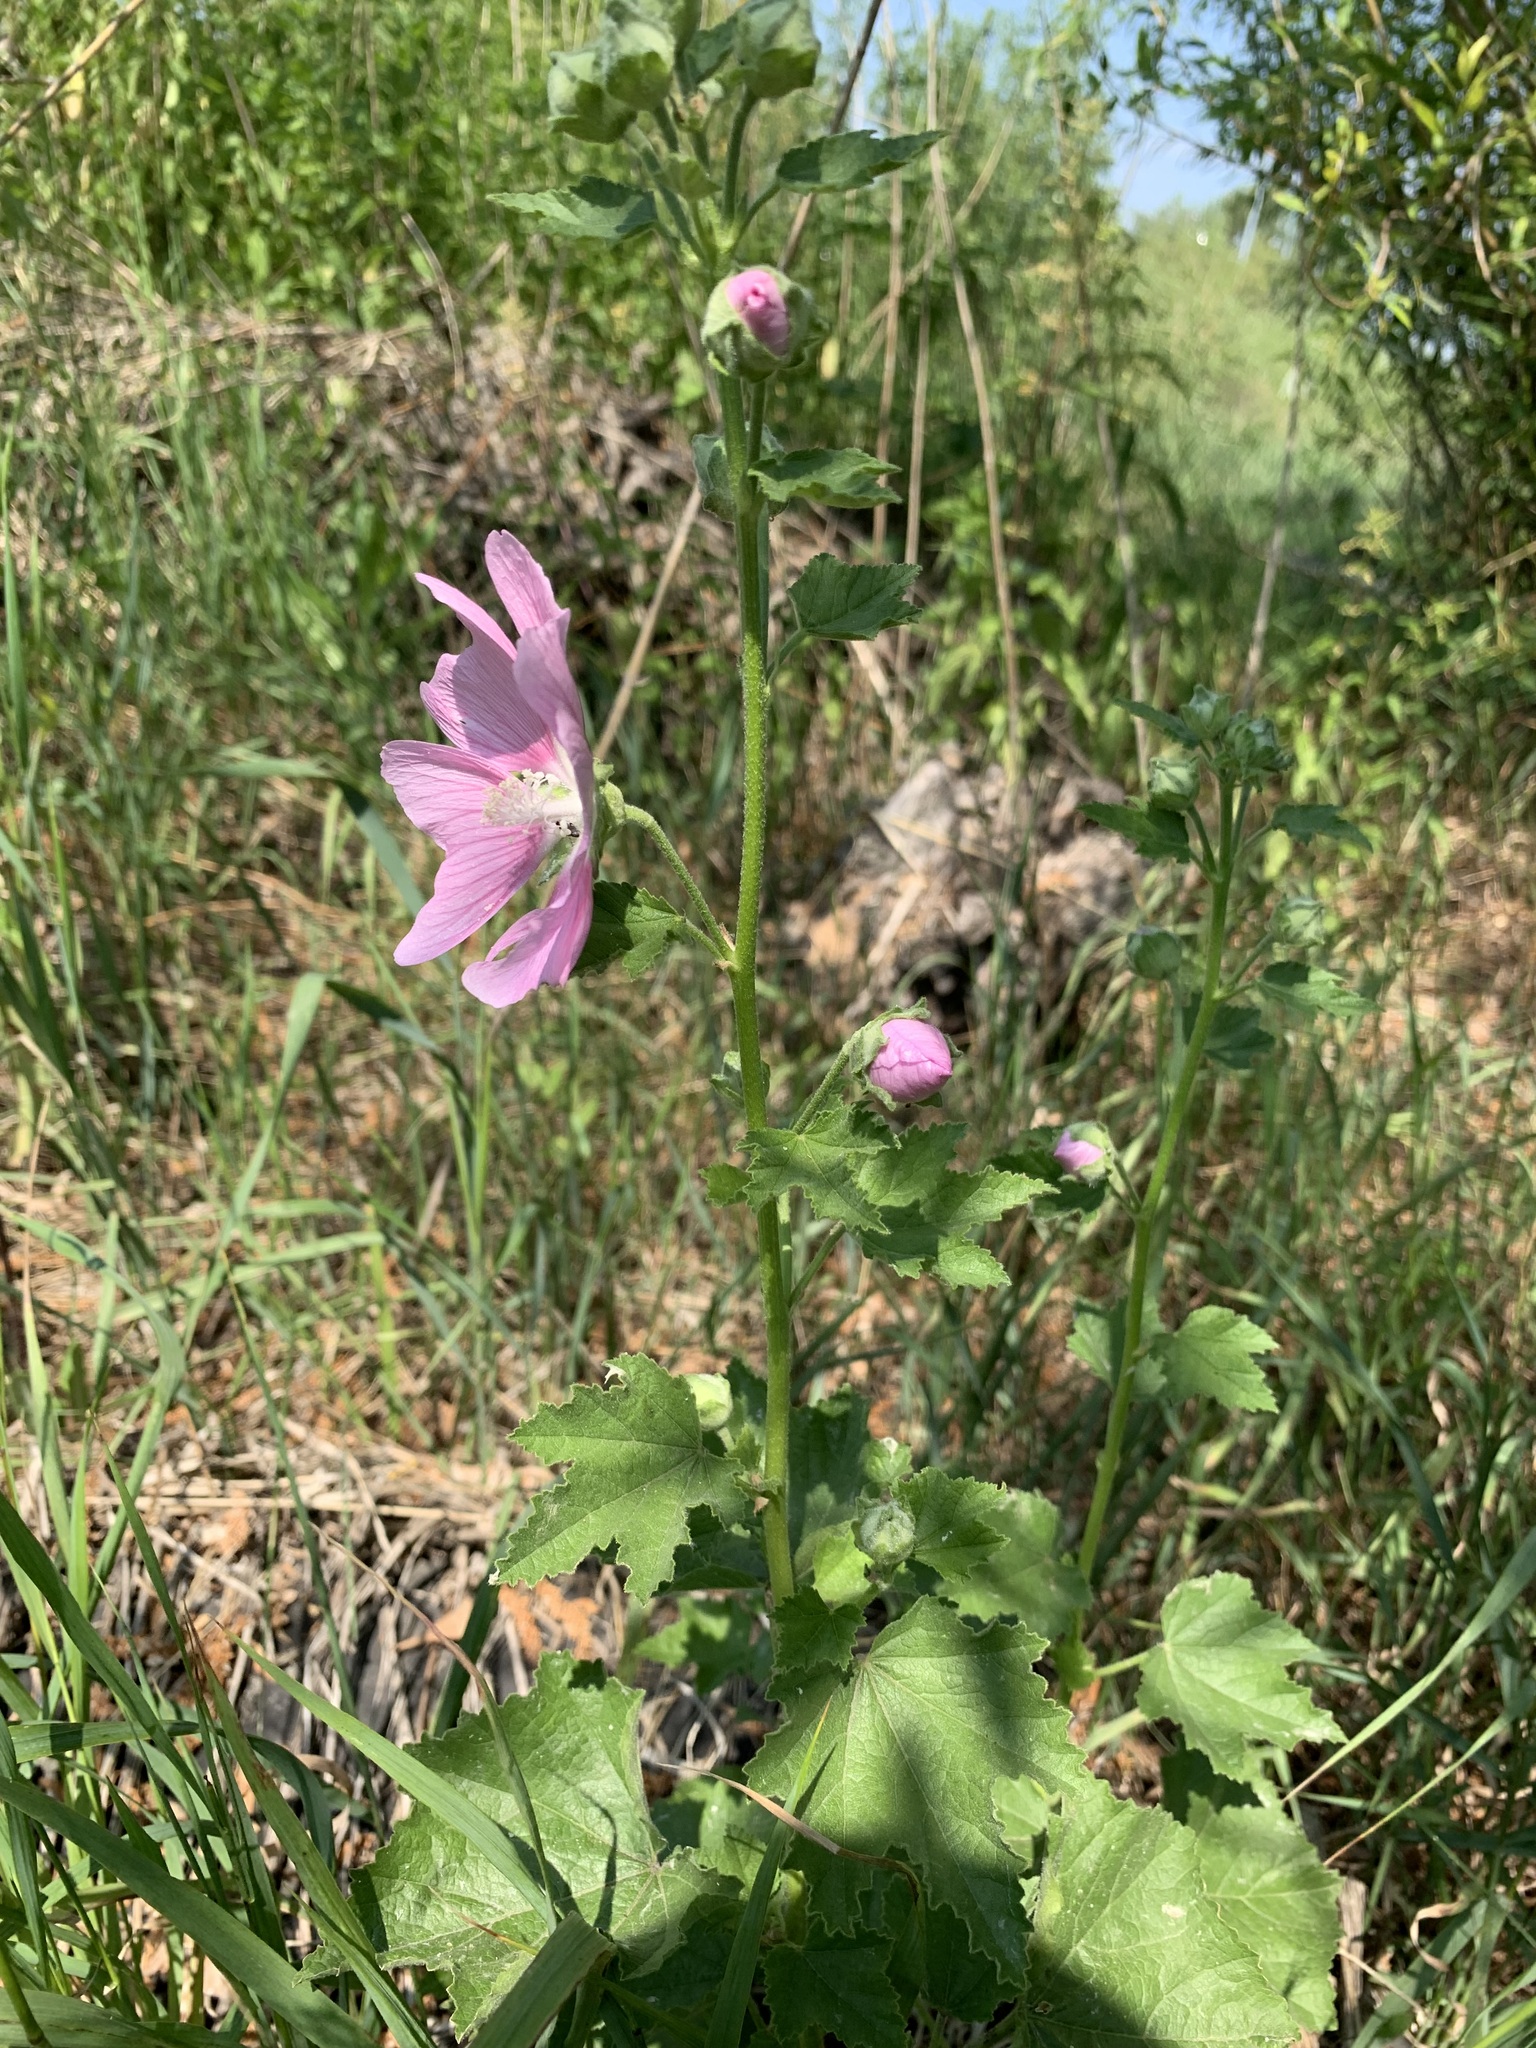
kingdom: Plantae
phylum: Tracheophyta
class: Magnoliopsida
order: Malvales
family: Malvaceae
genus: Malva
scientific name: Malva thuringiaca
